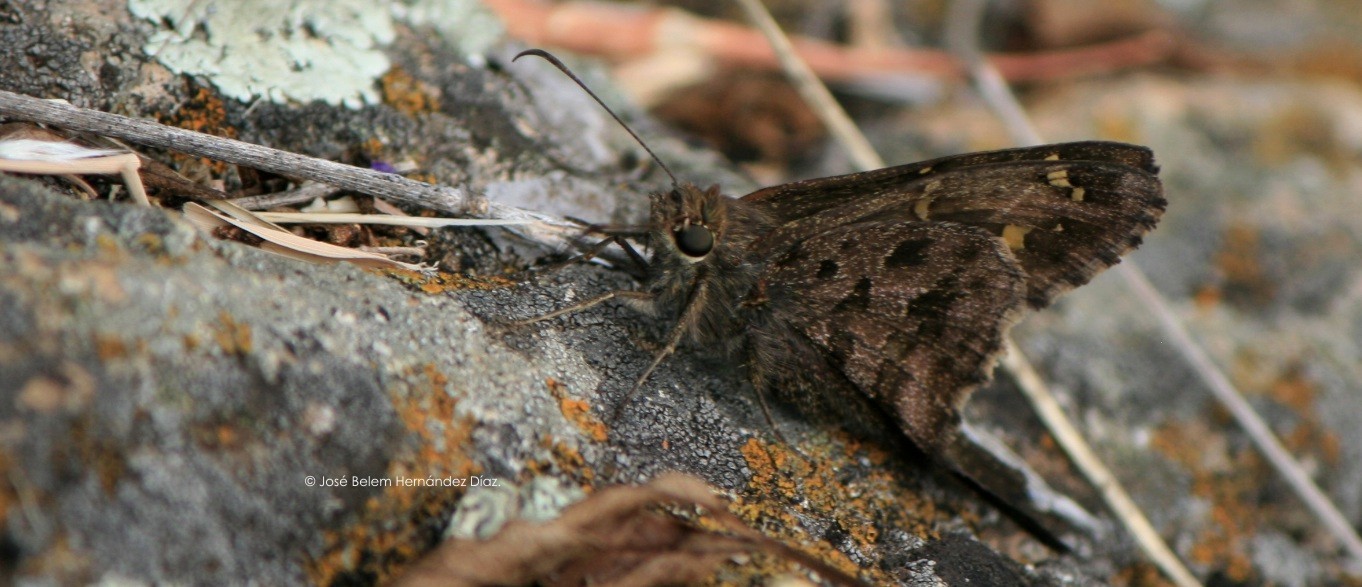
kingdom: Animalia
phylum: Arthropoda
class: Insecta
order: Lepidoptera
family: Hesperiidae
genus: Thorybes
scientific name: Thorybes
